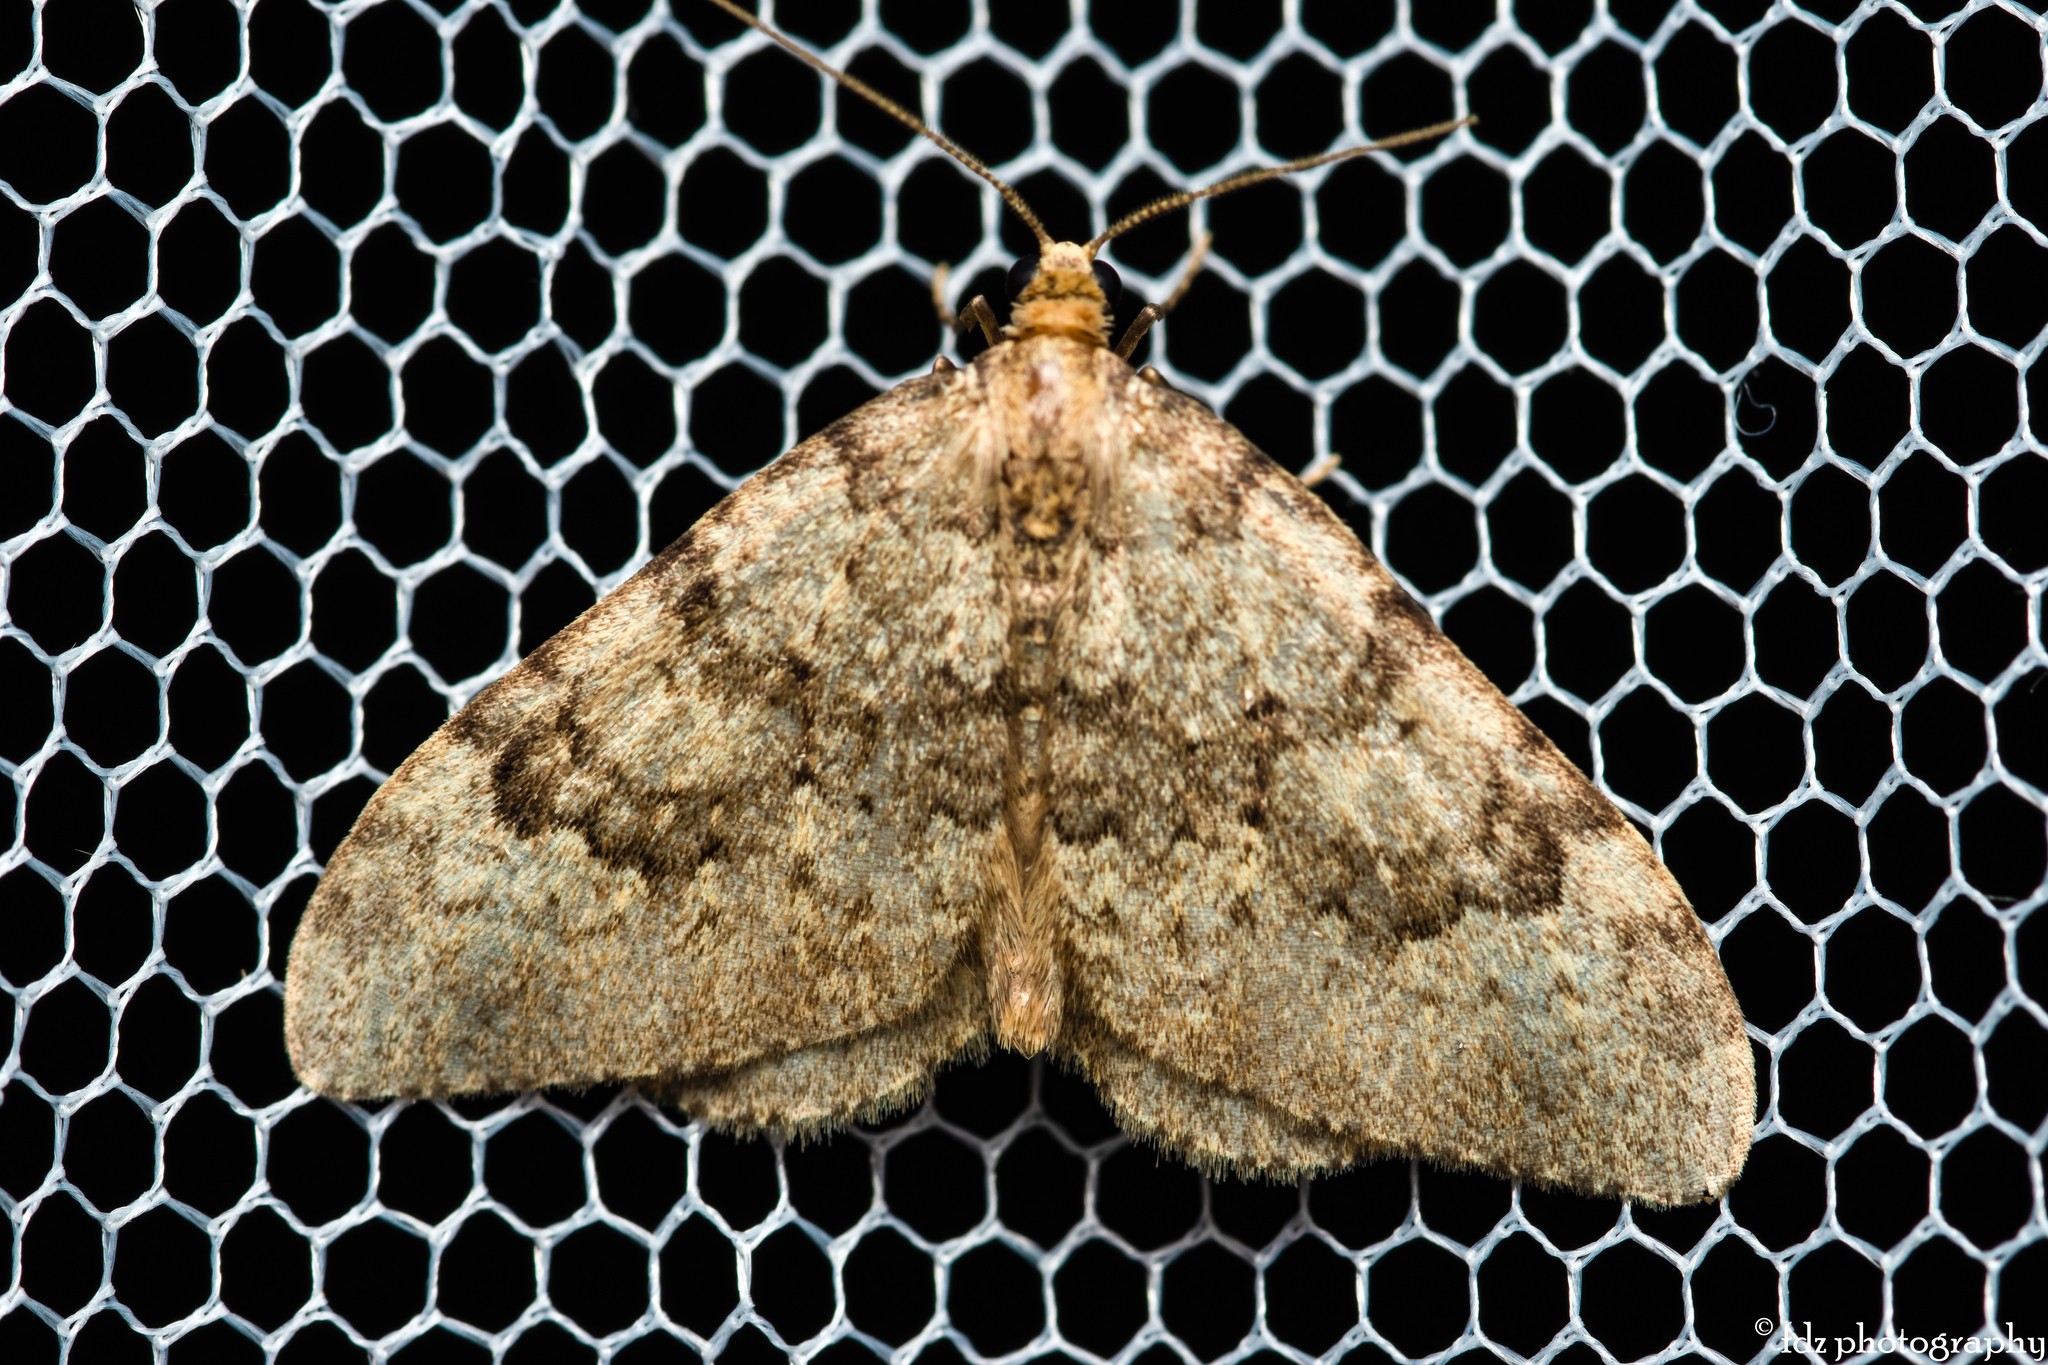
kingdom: Animalia
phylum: Arthropoda
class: Insecta
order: Lepidoptera
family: Geometridae
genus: Nebula
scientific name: Nebula ibericata
